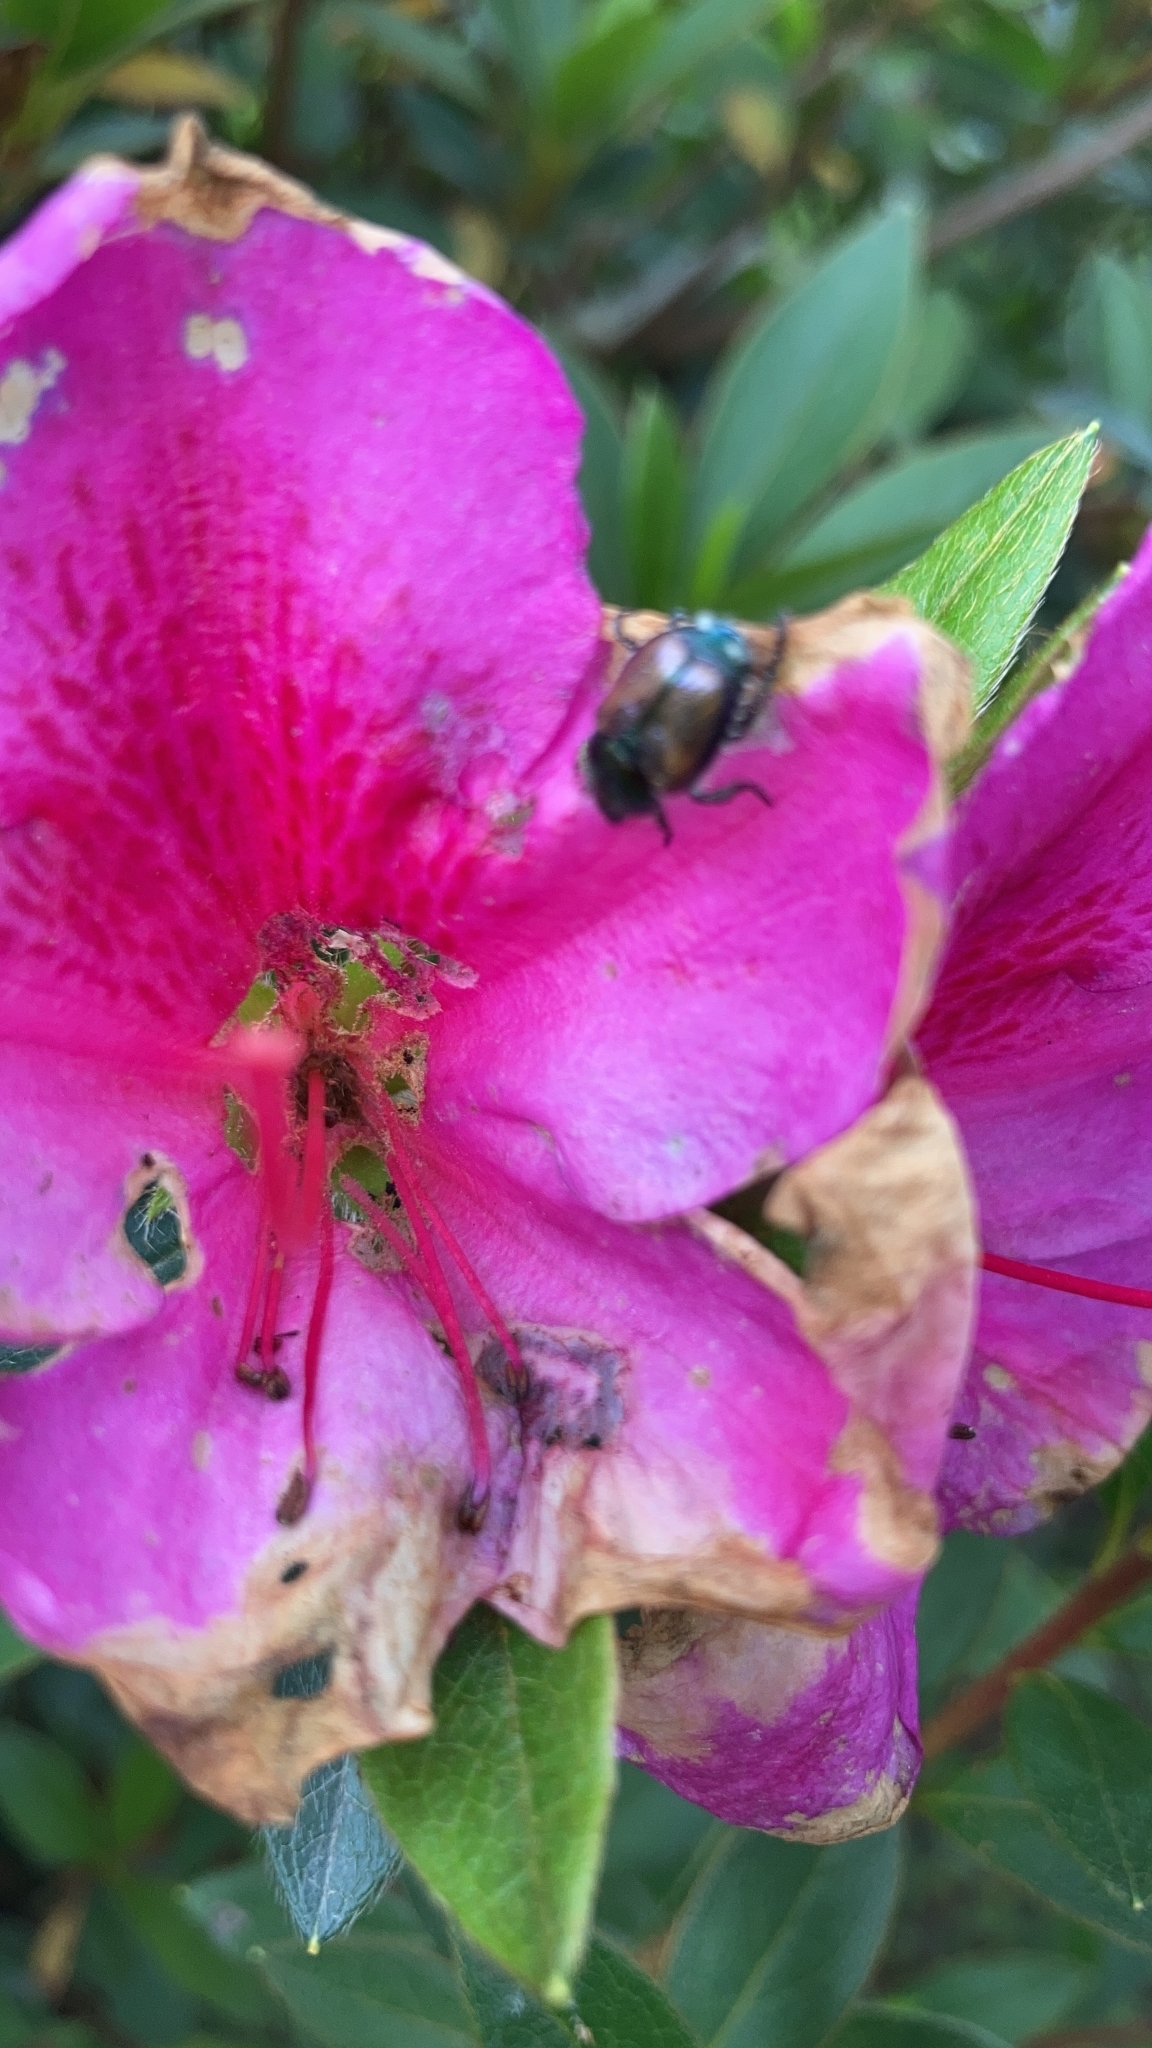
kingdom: Animalia
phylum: Arthropoda
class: Insecta
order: Coleoptera
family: Scarabaeidae
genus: Popillia
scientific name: Popillia japonica
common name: Japanese beetle
